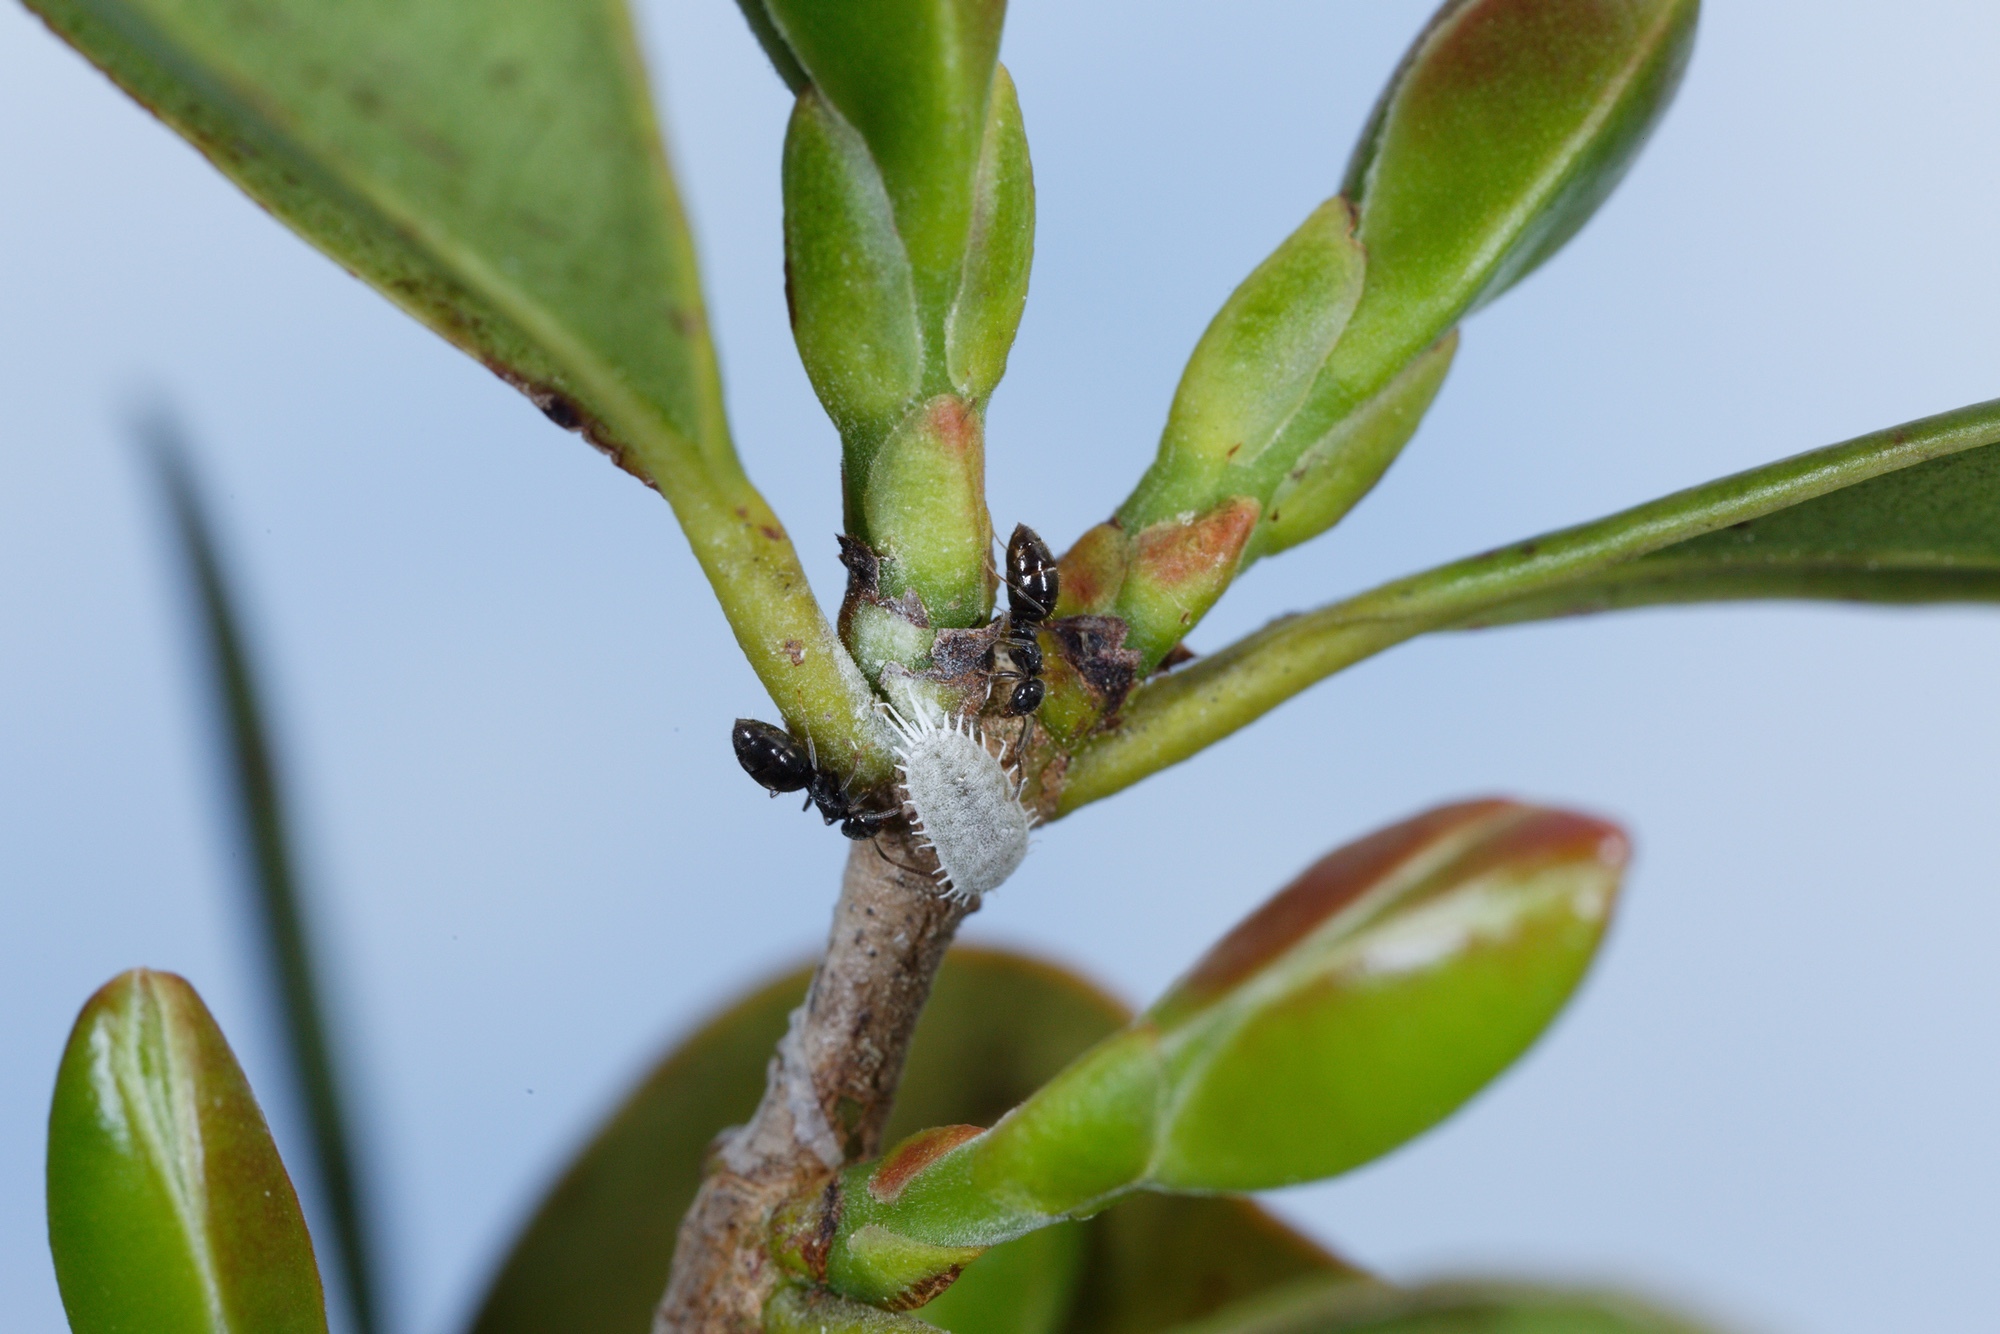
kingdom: Animalia
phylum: Arthropoda
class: Insecta
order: Hymenoptera
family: Formicidae
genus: Technomyrmex
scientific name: Technomyrmex jocosus
